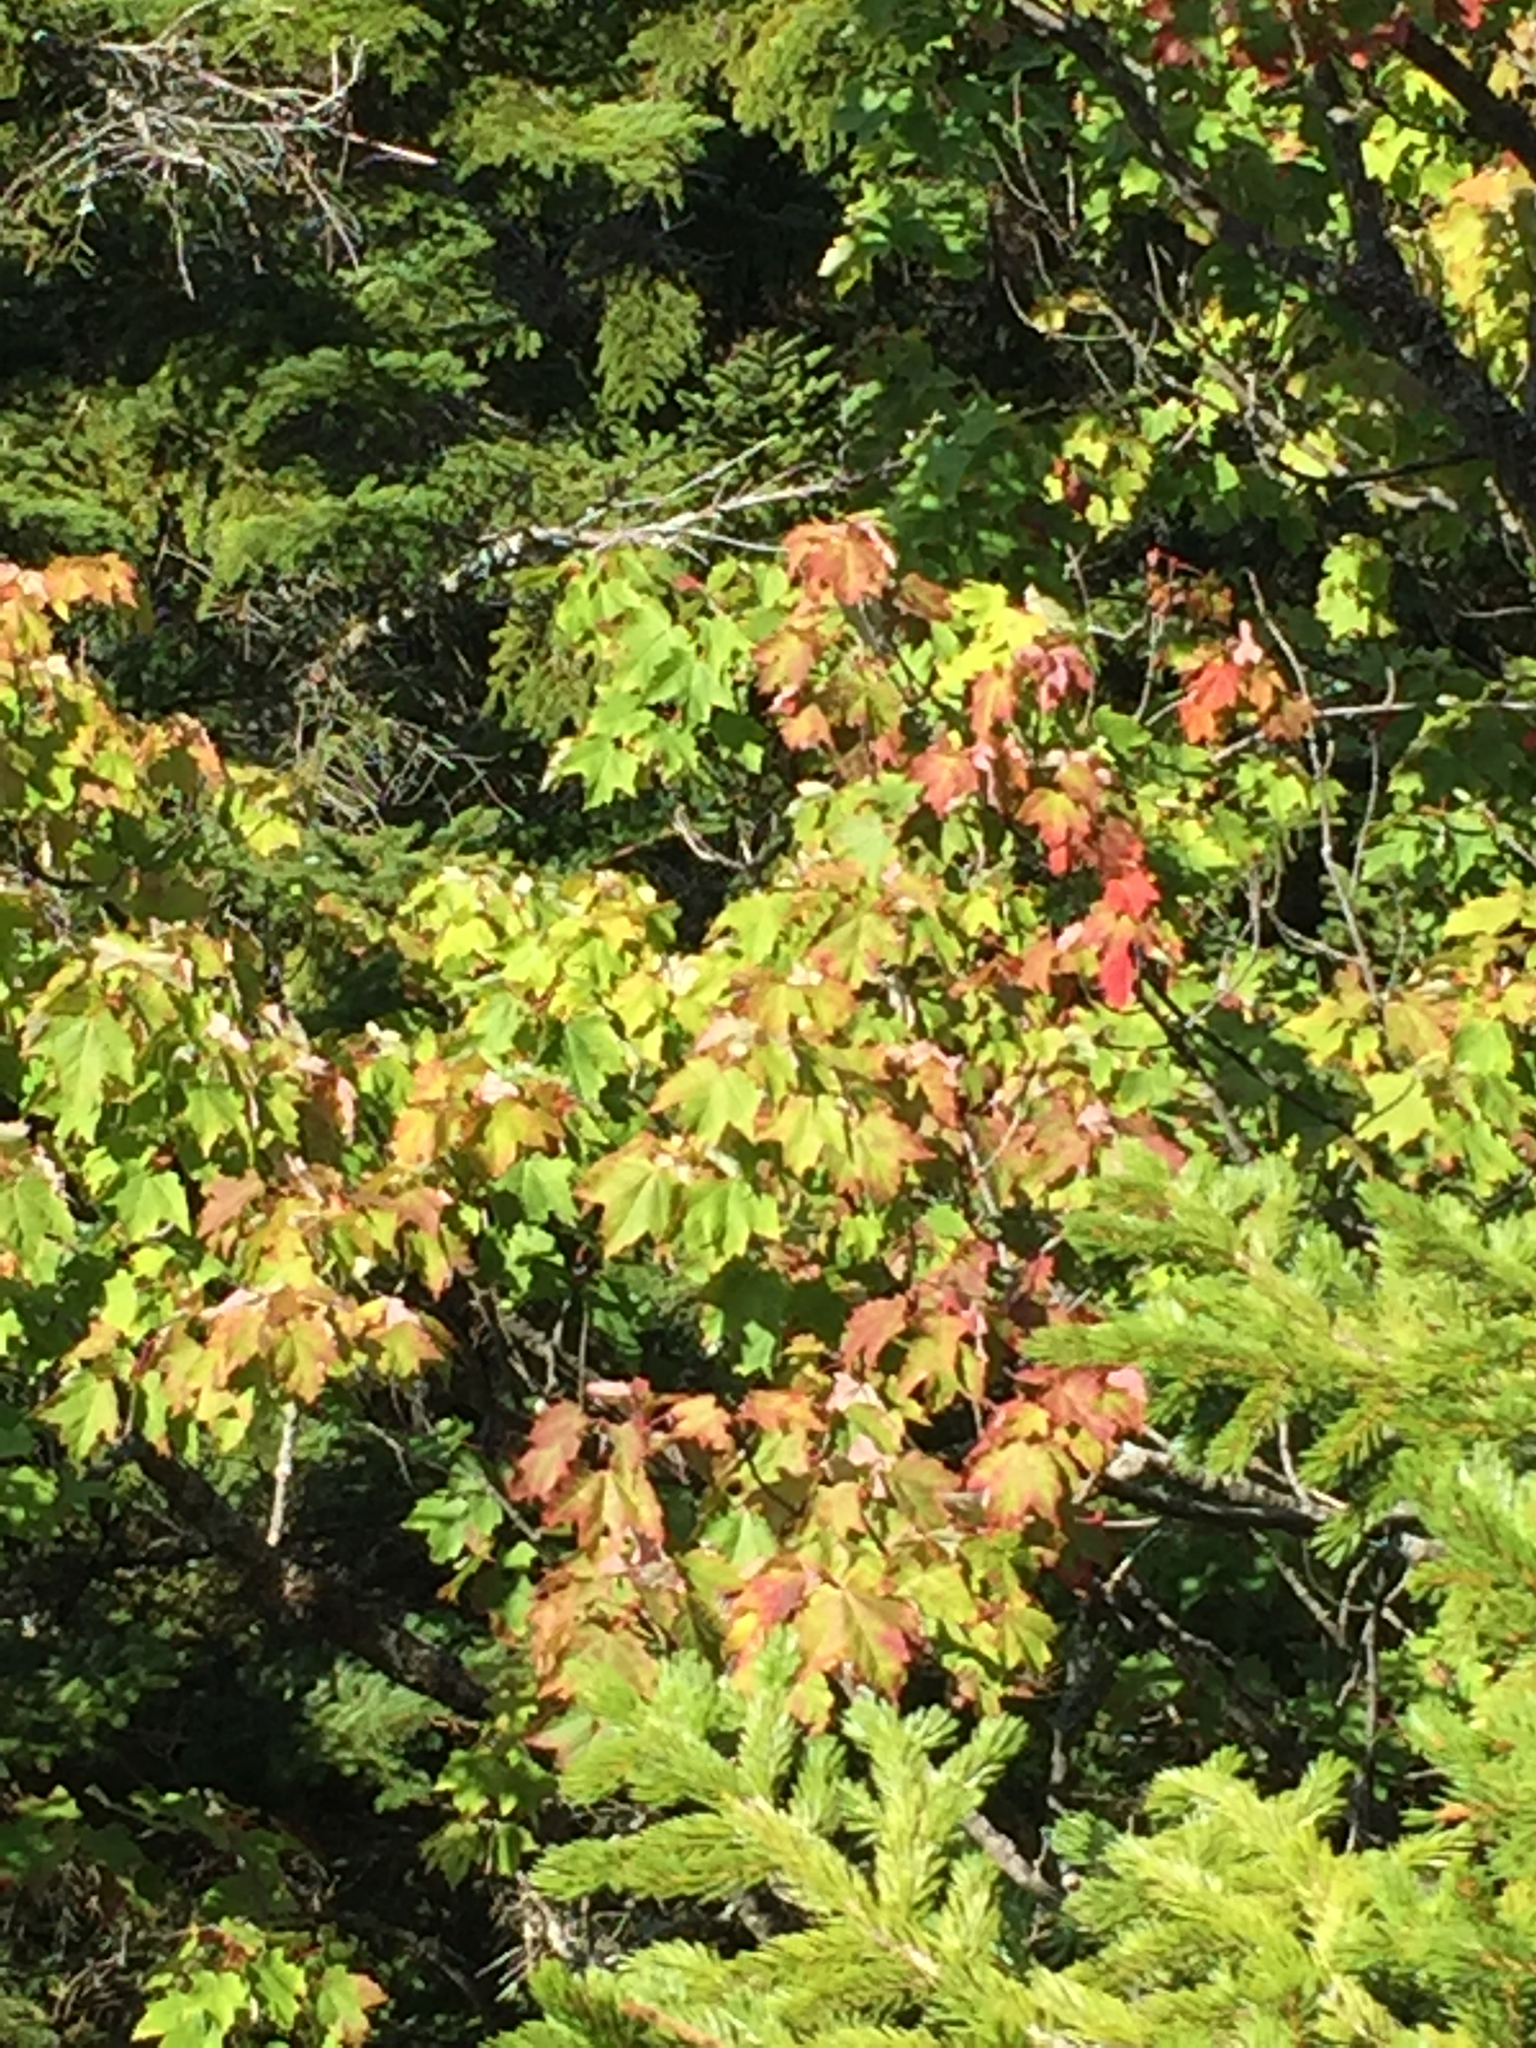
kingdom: Plantae
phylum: Tracheophyta
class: Magnoliopsida
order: Sapindales
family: Sapindaceae
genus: Acer
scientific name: Acer rubrum
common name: Red maple
